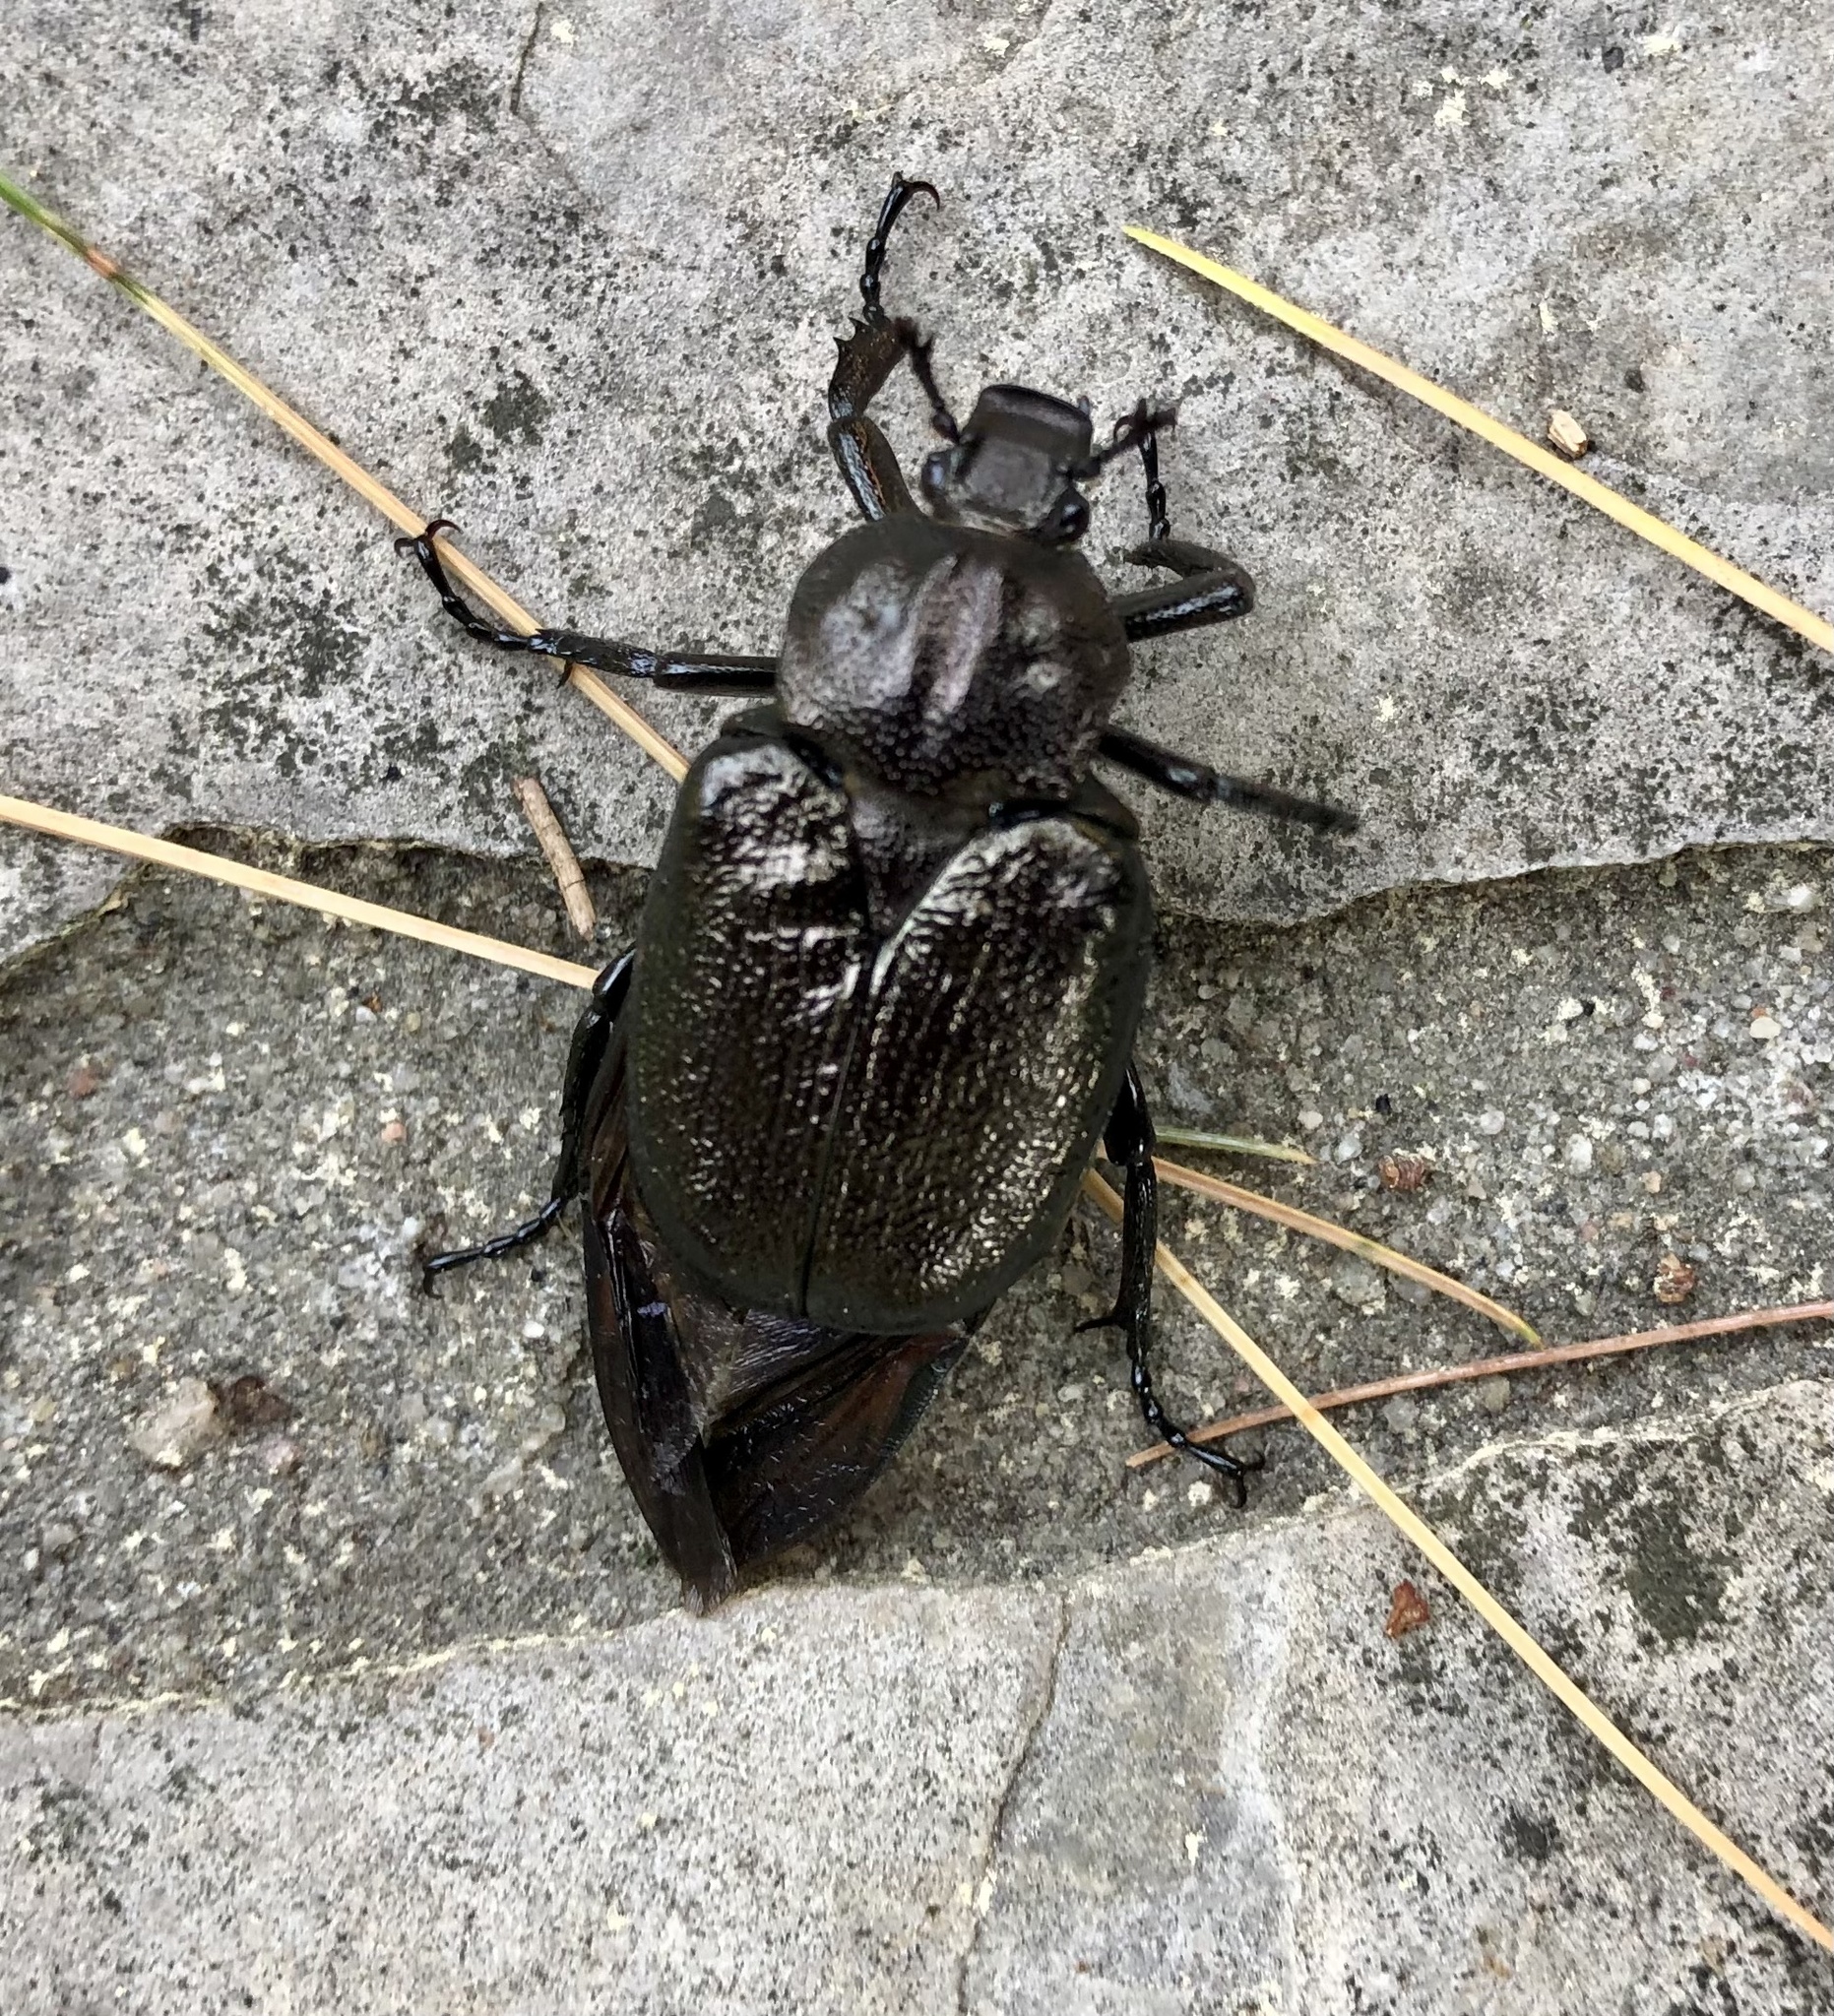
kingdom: Animalia
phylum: Arthropoda
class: Insecta
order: Coleoptera
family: Scarabaeidae
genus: Osmoderma
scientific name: Osmoderma scabra
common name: Rough hermit beetle
